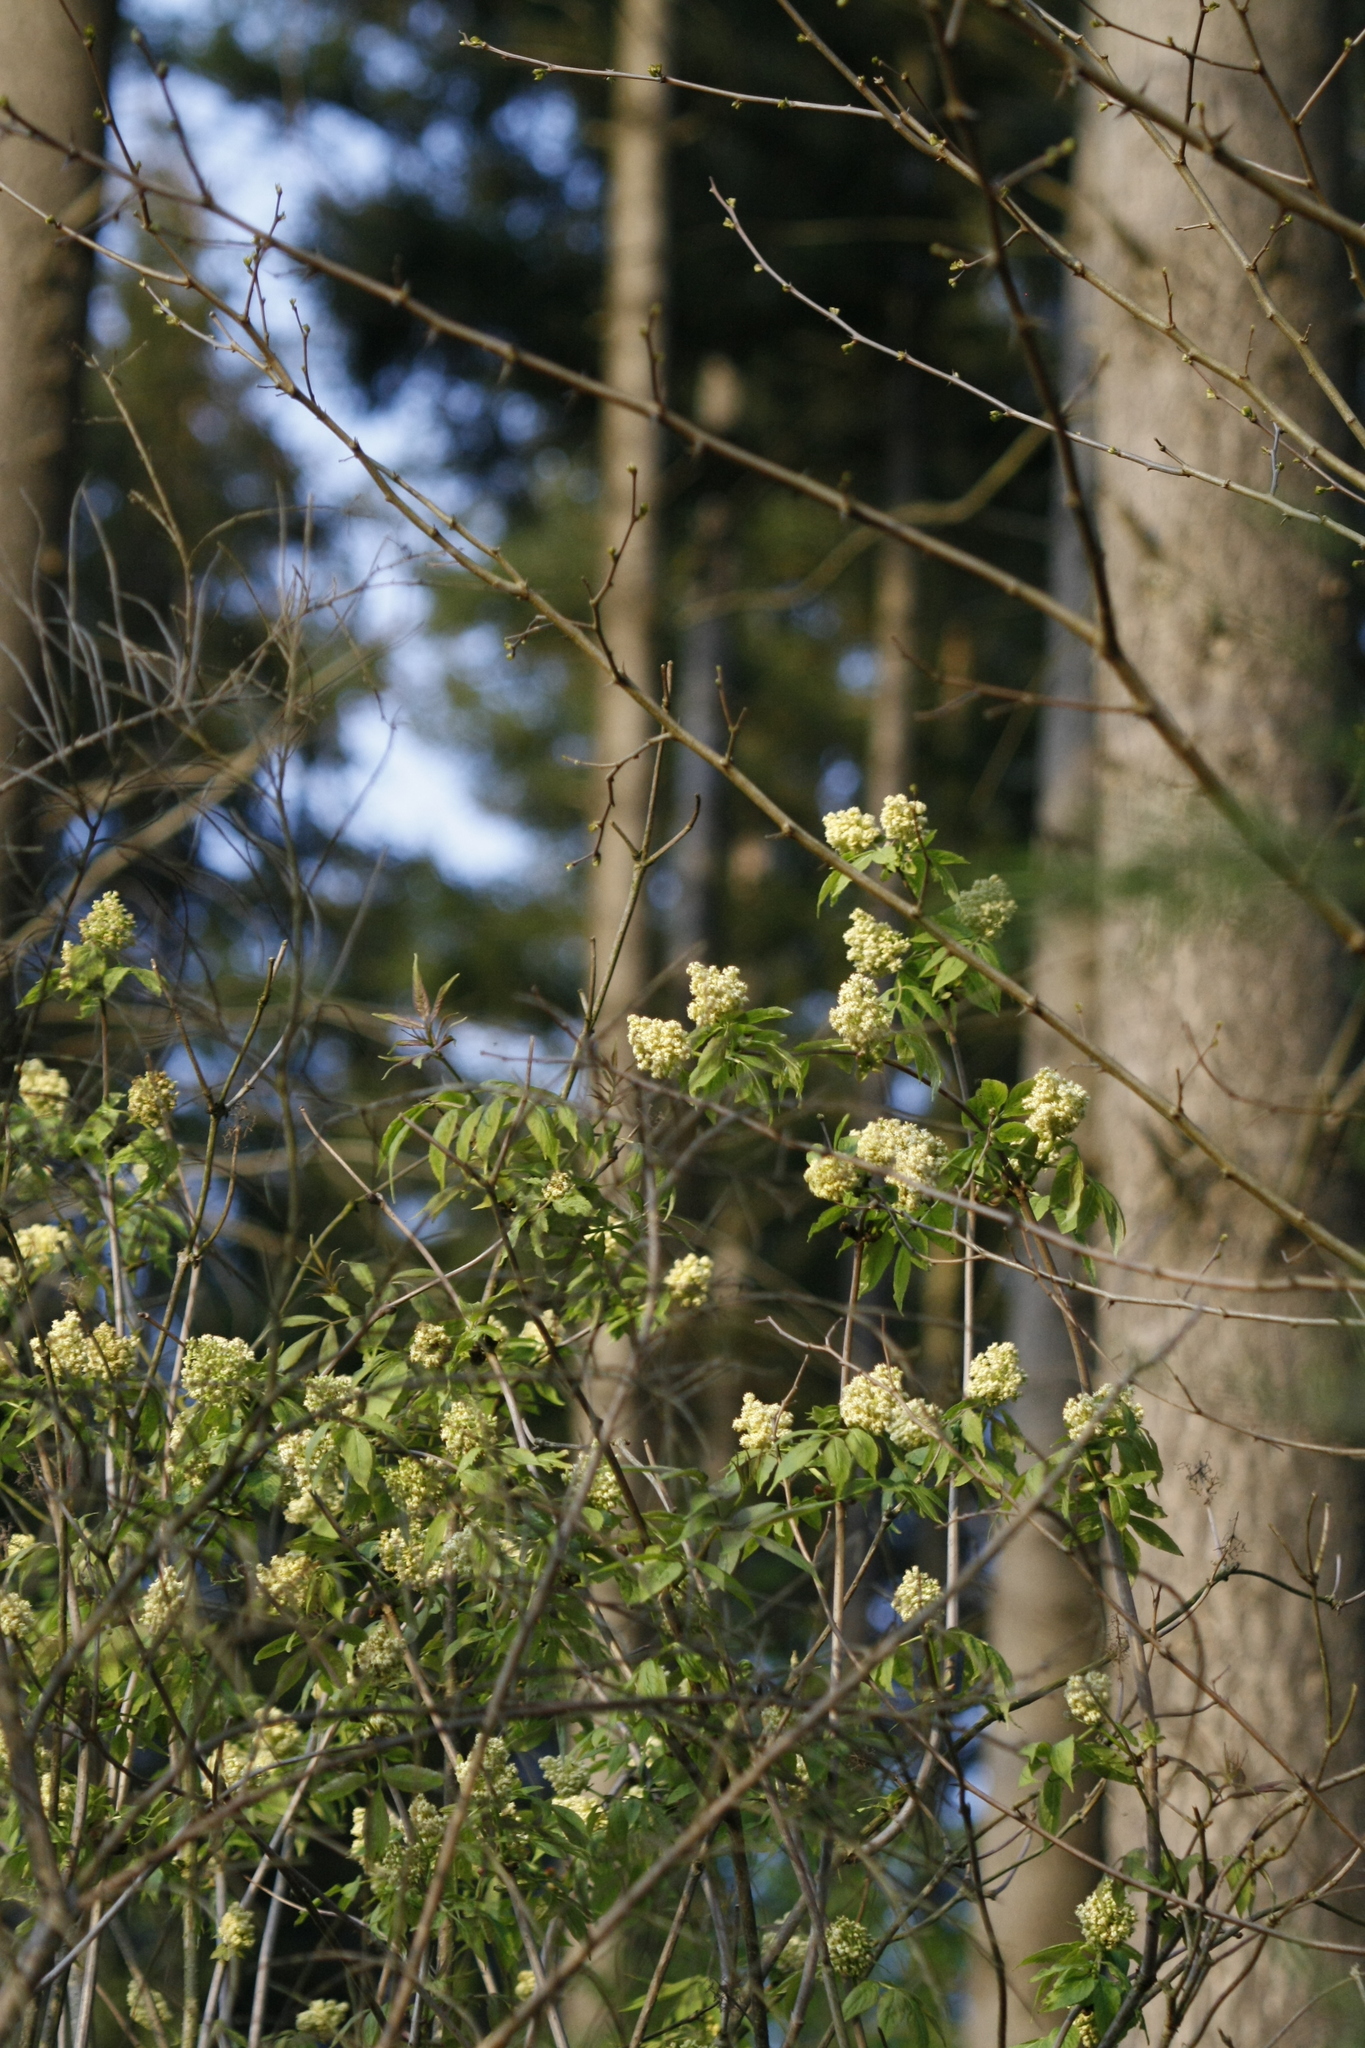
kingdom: Plantae
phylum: Tracheophyta
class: Magnoliopsida
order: Dipsacales
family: Viburnaceae
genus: Sambucus
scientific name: Sambucus racemosa
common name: Red-berried elder
